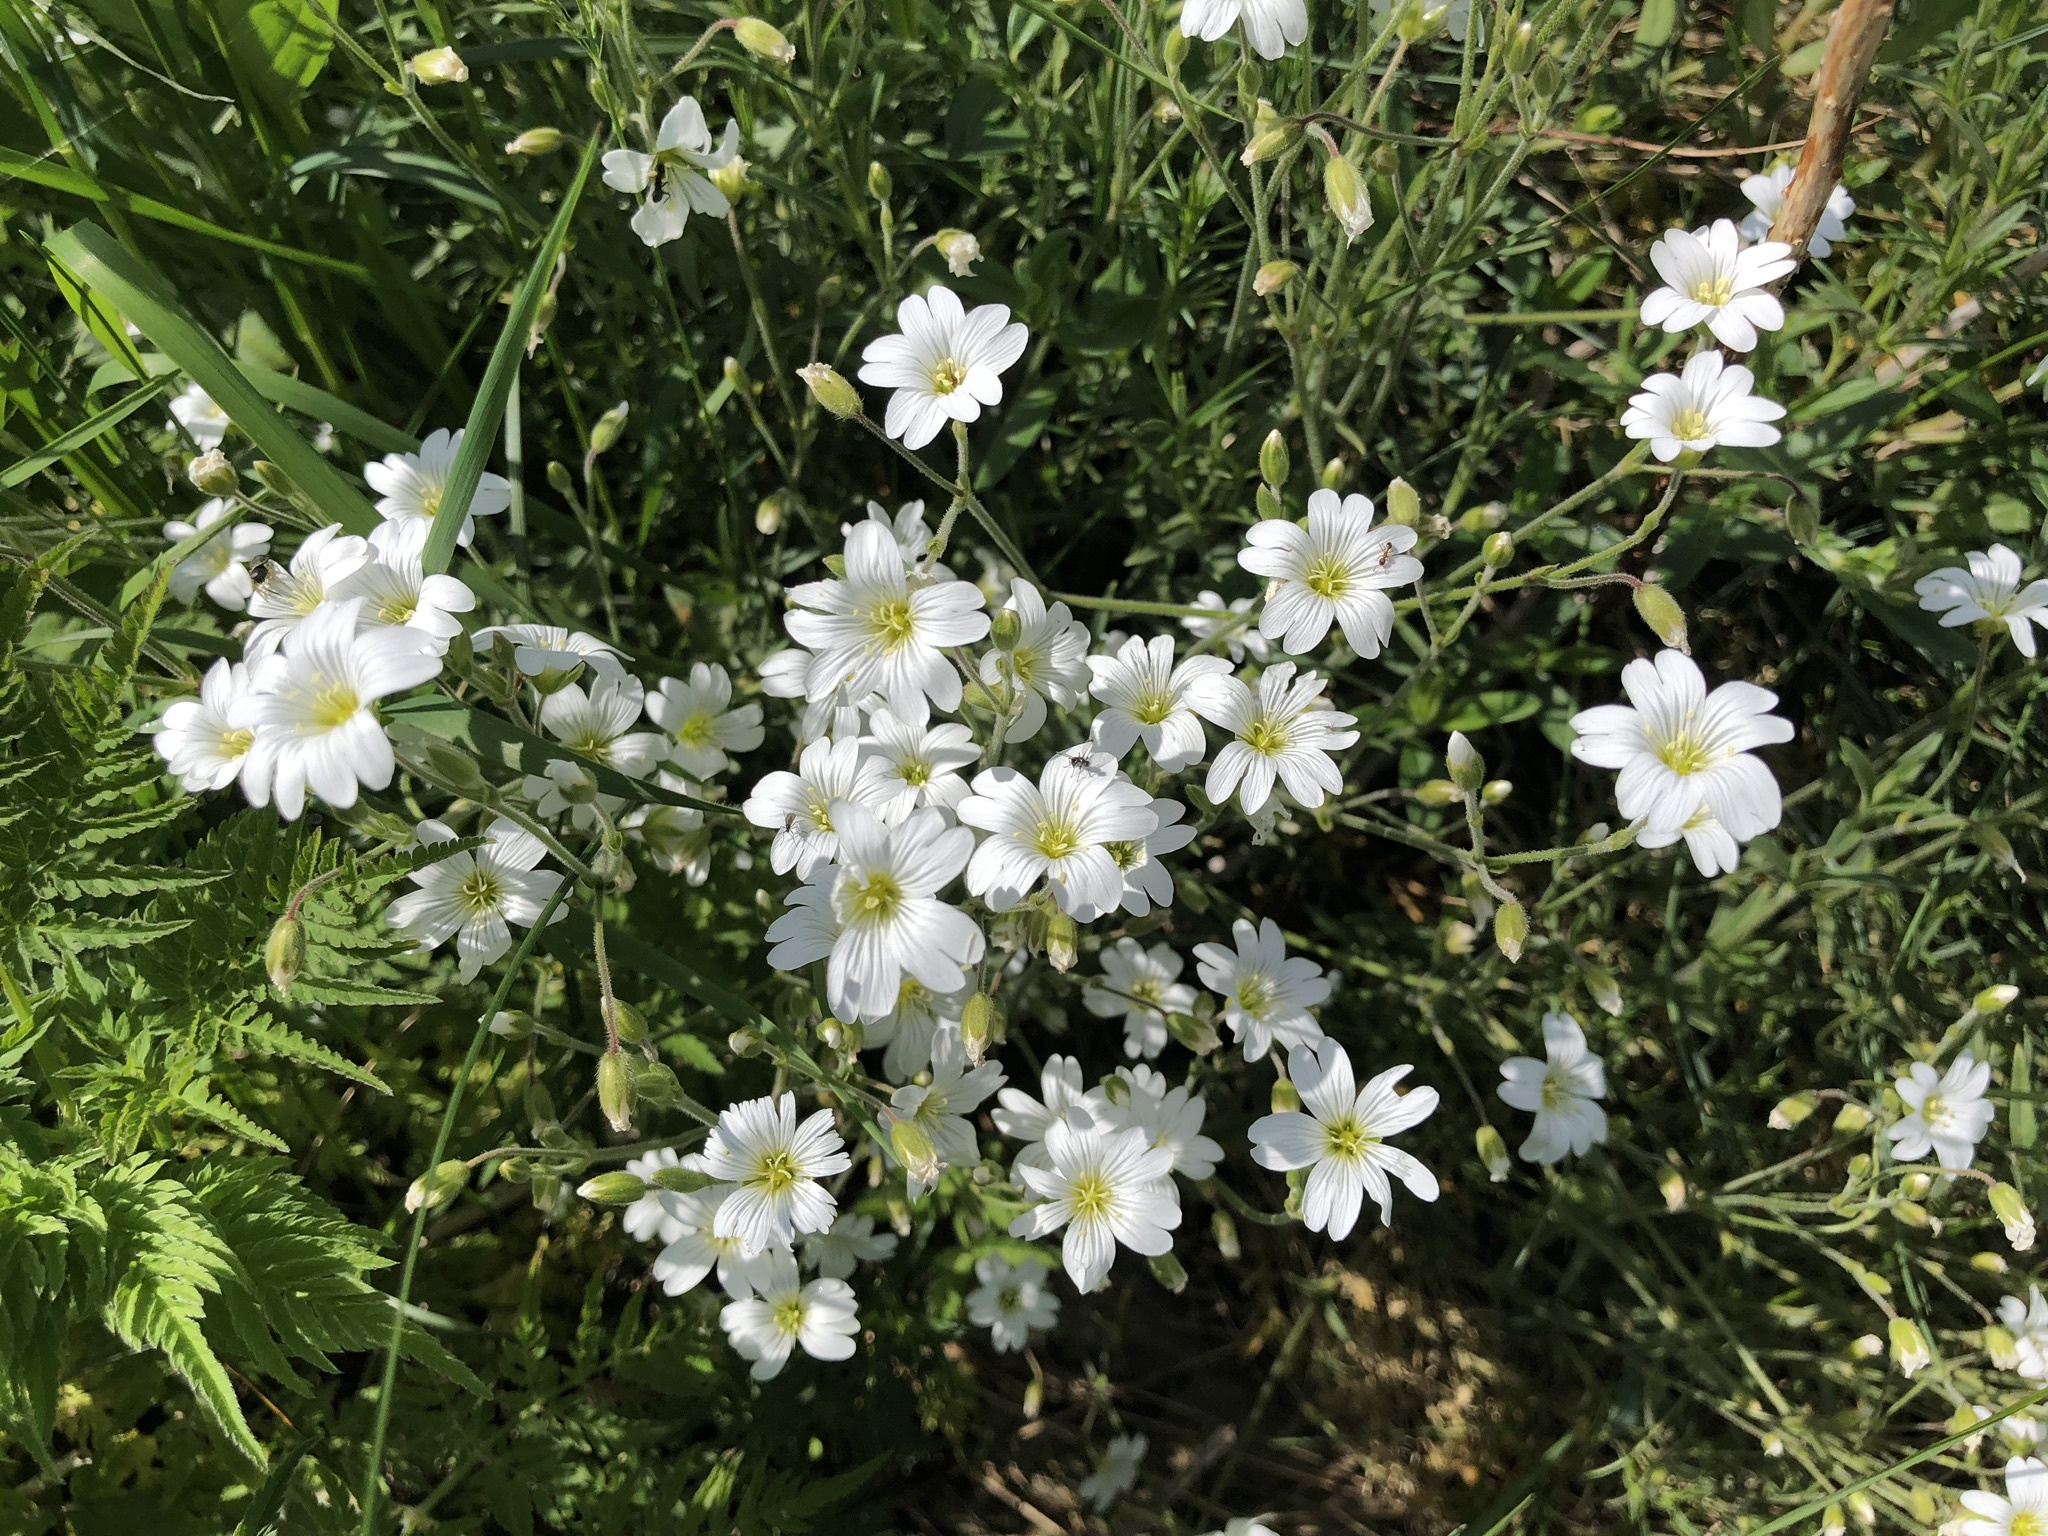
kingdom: Plantae
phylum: Tracheophyta
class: Magnoliopsida
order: Caryophyllales
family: Caryophyllaceae
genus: Cerastium
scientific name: Cerastium arvense
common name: Field mouse-ear
